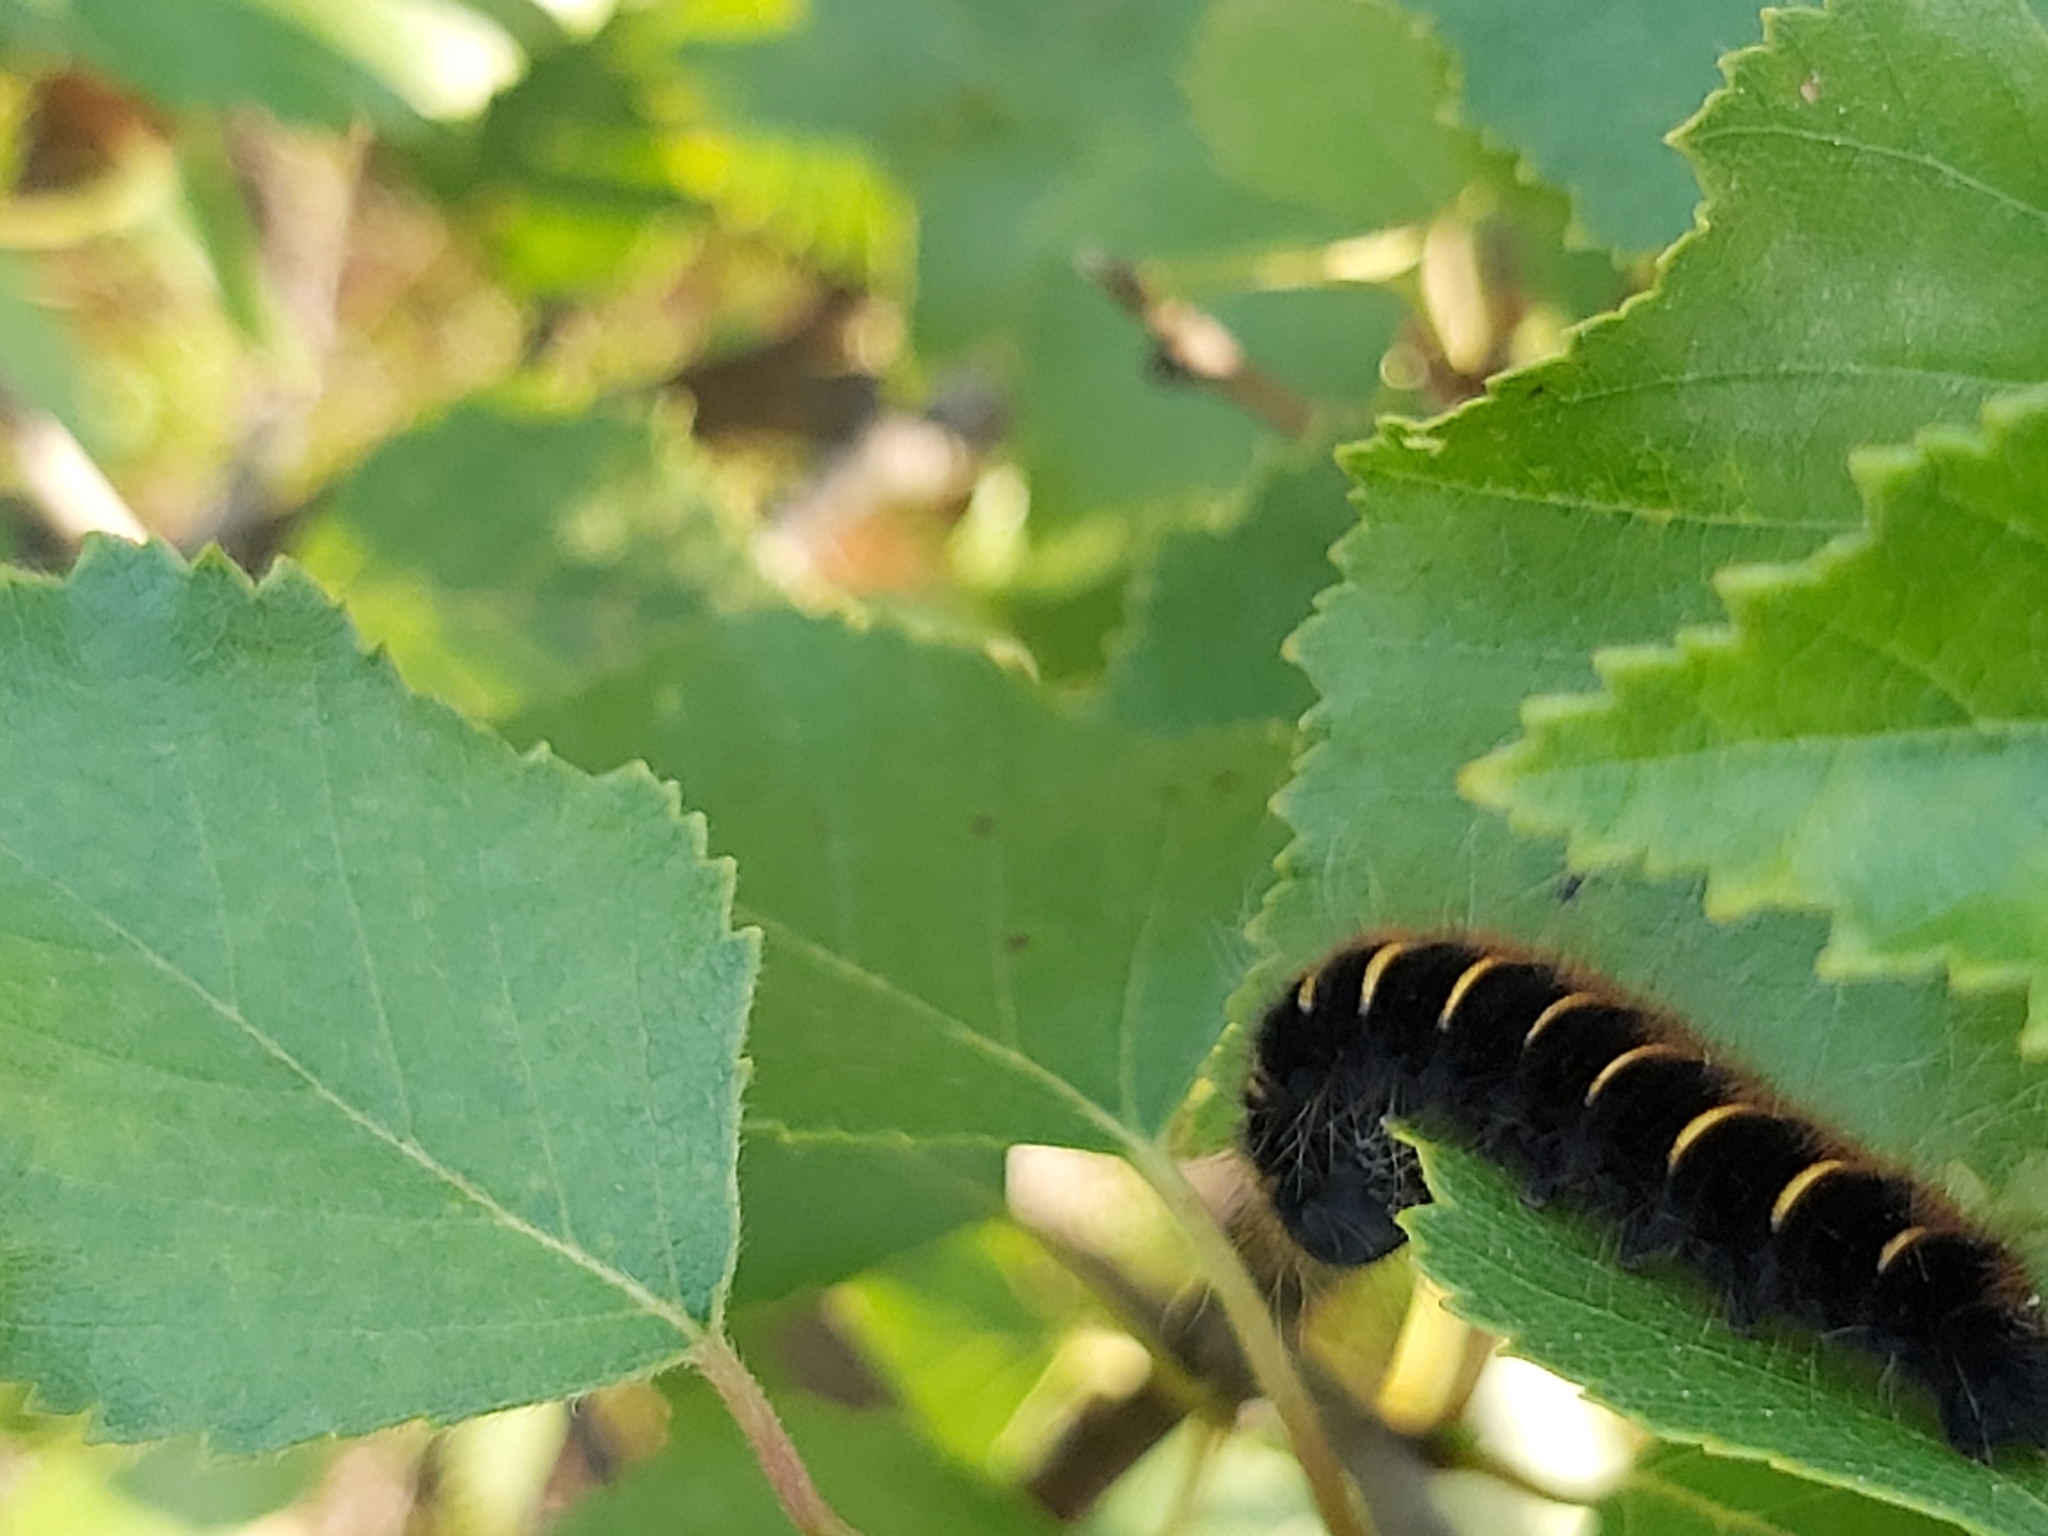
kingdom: Animalia
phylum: Arthropoda
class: Insecta
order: Lepidoptera
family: Lasiocampidae
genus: Macrothylacia
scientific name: Macrothylacia rubi
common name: Fox moth
